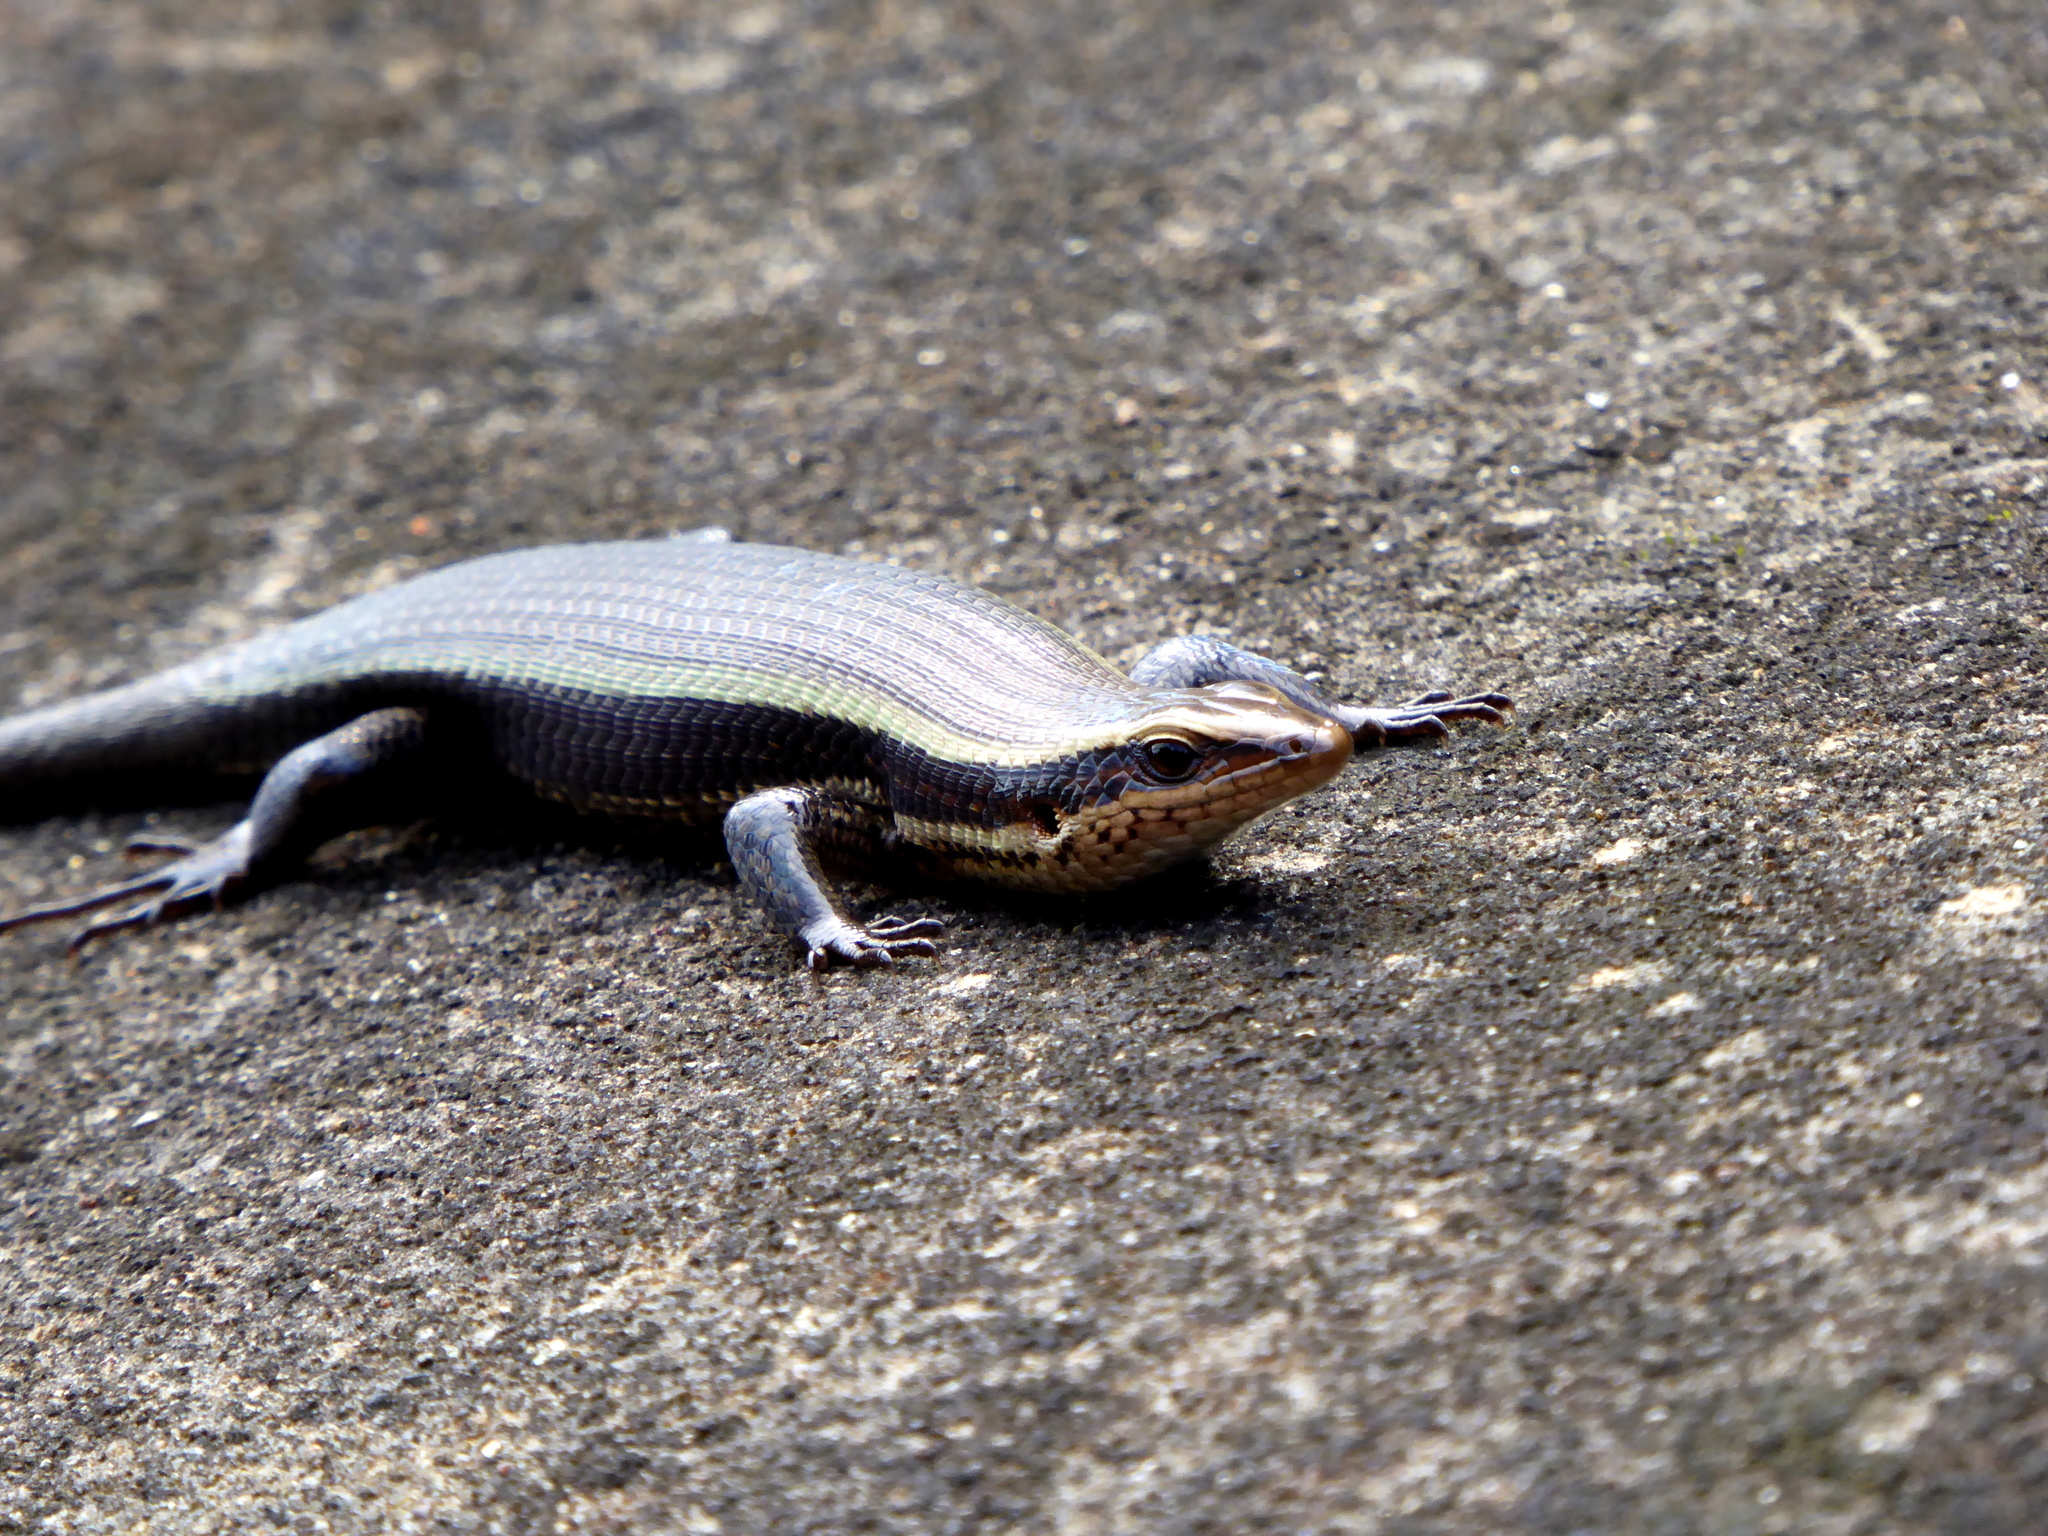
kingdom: Animalia
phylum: Chordata
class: Squamata
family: Scincidae
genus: Eutropis
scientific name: Eutropis madaraszi
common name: Sri lanka bronze skink
